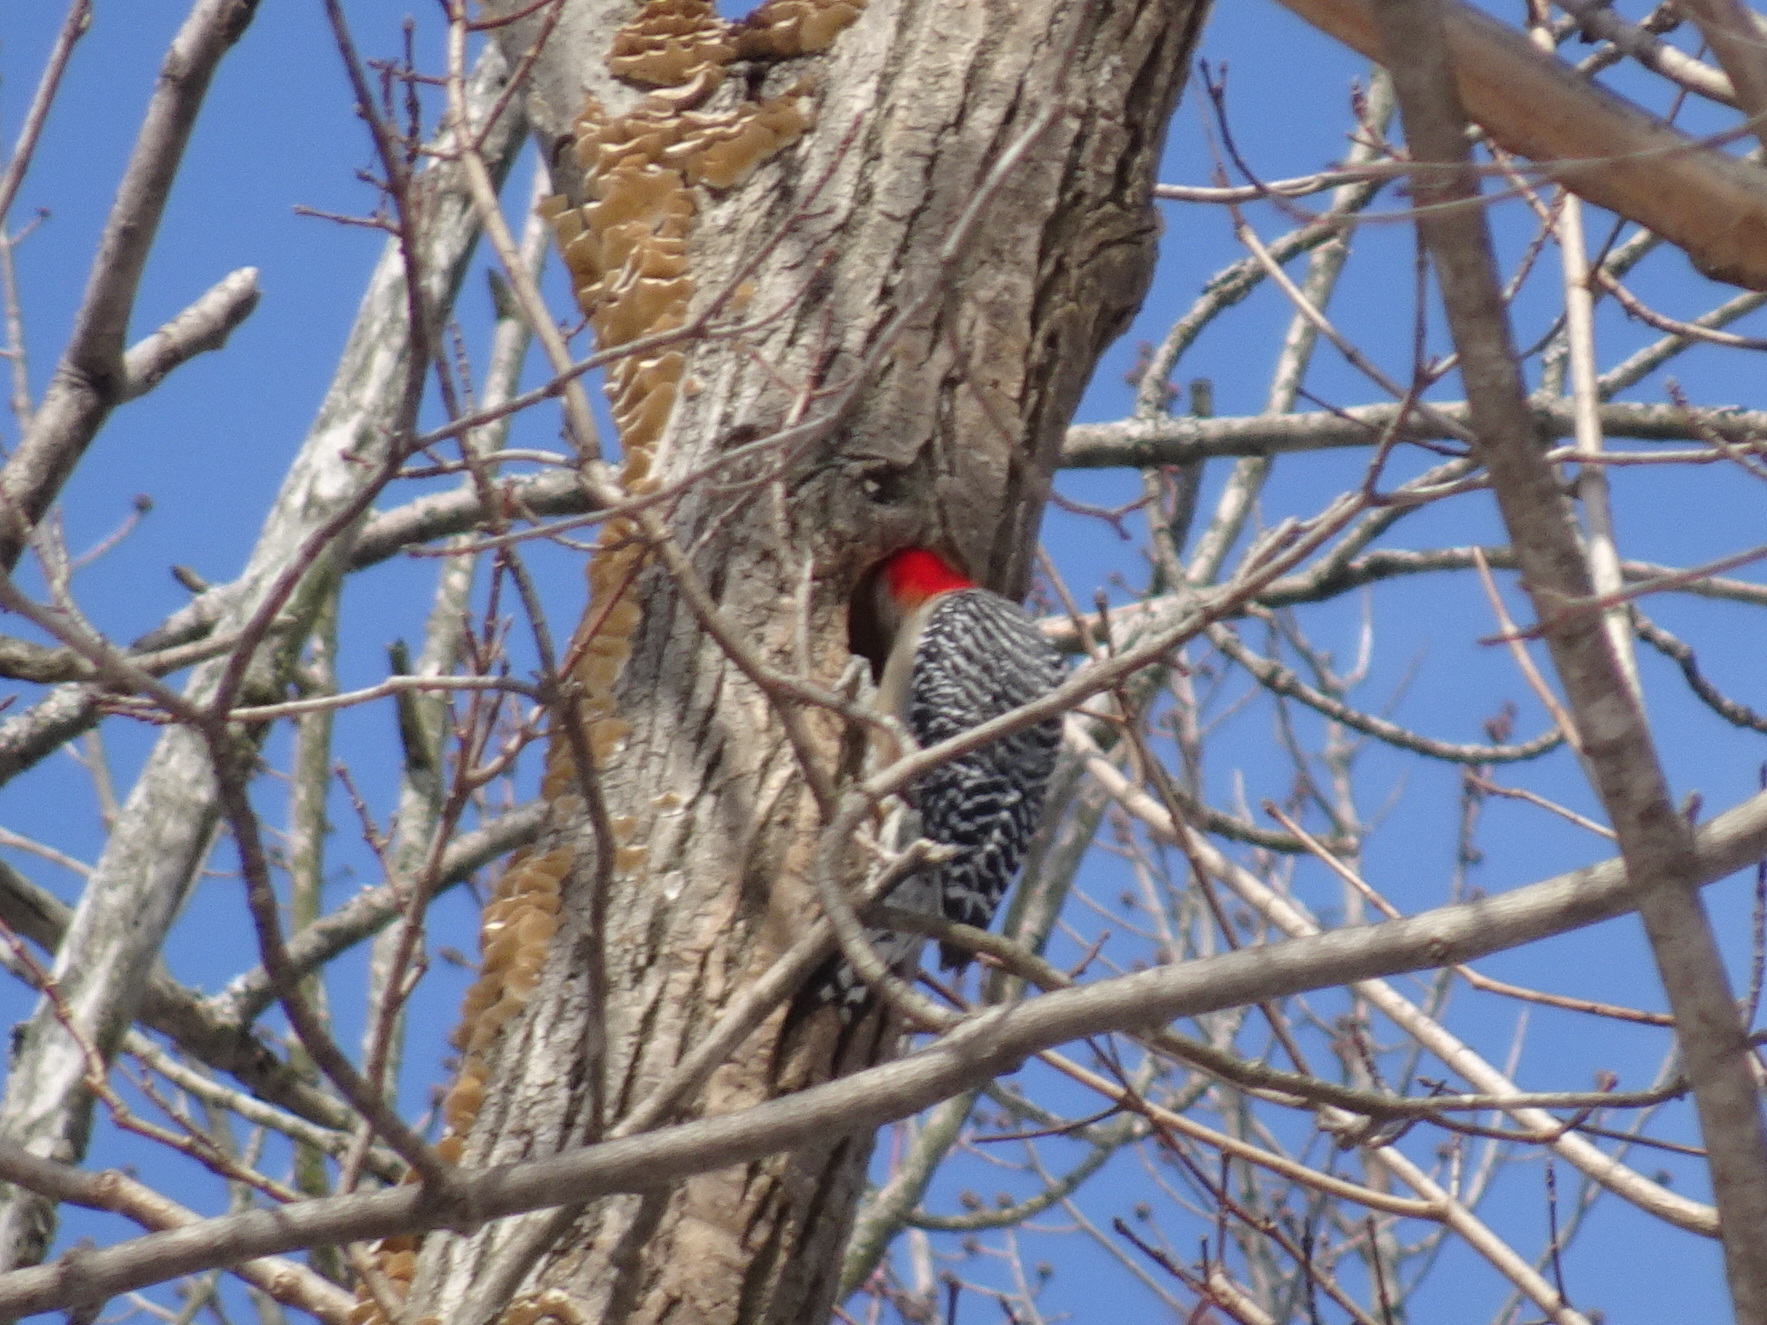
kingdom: Animalia
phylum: Chordata
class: Aves
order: Piciformes
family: Picidae
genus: Melanerpes
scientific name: Melanerpes carolinus
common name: Red-bellied woodpecker
